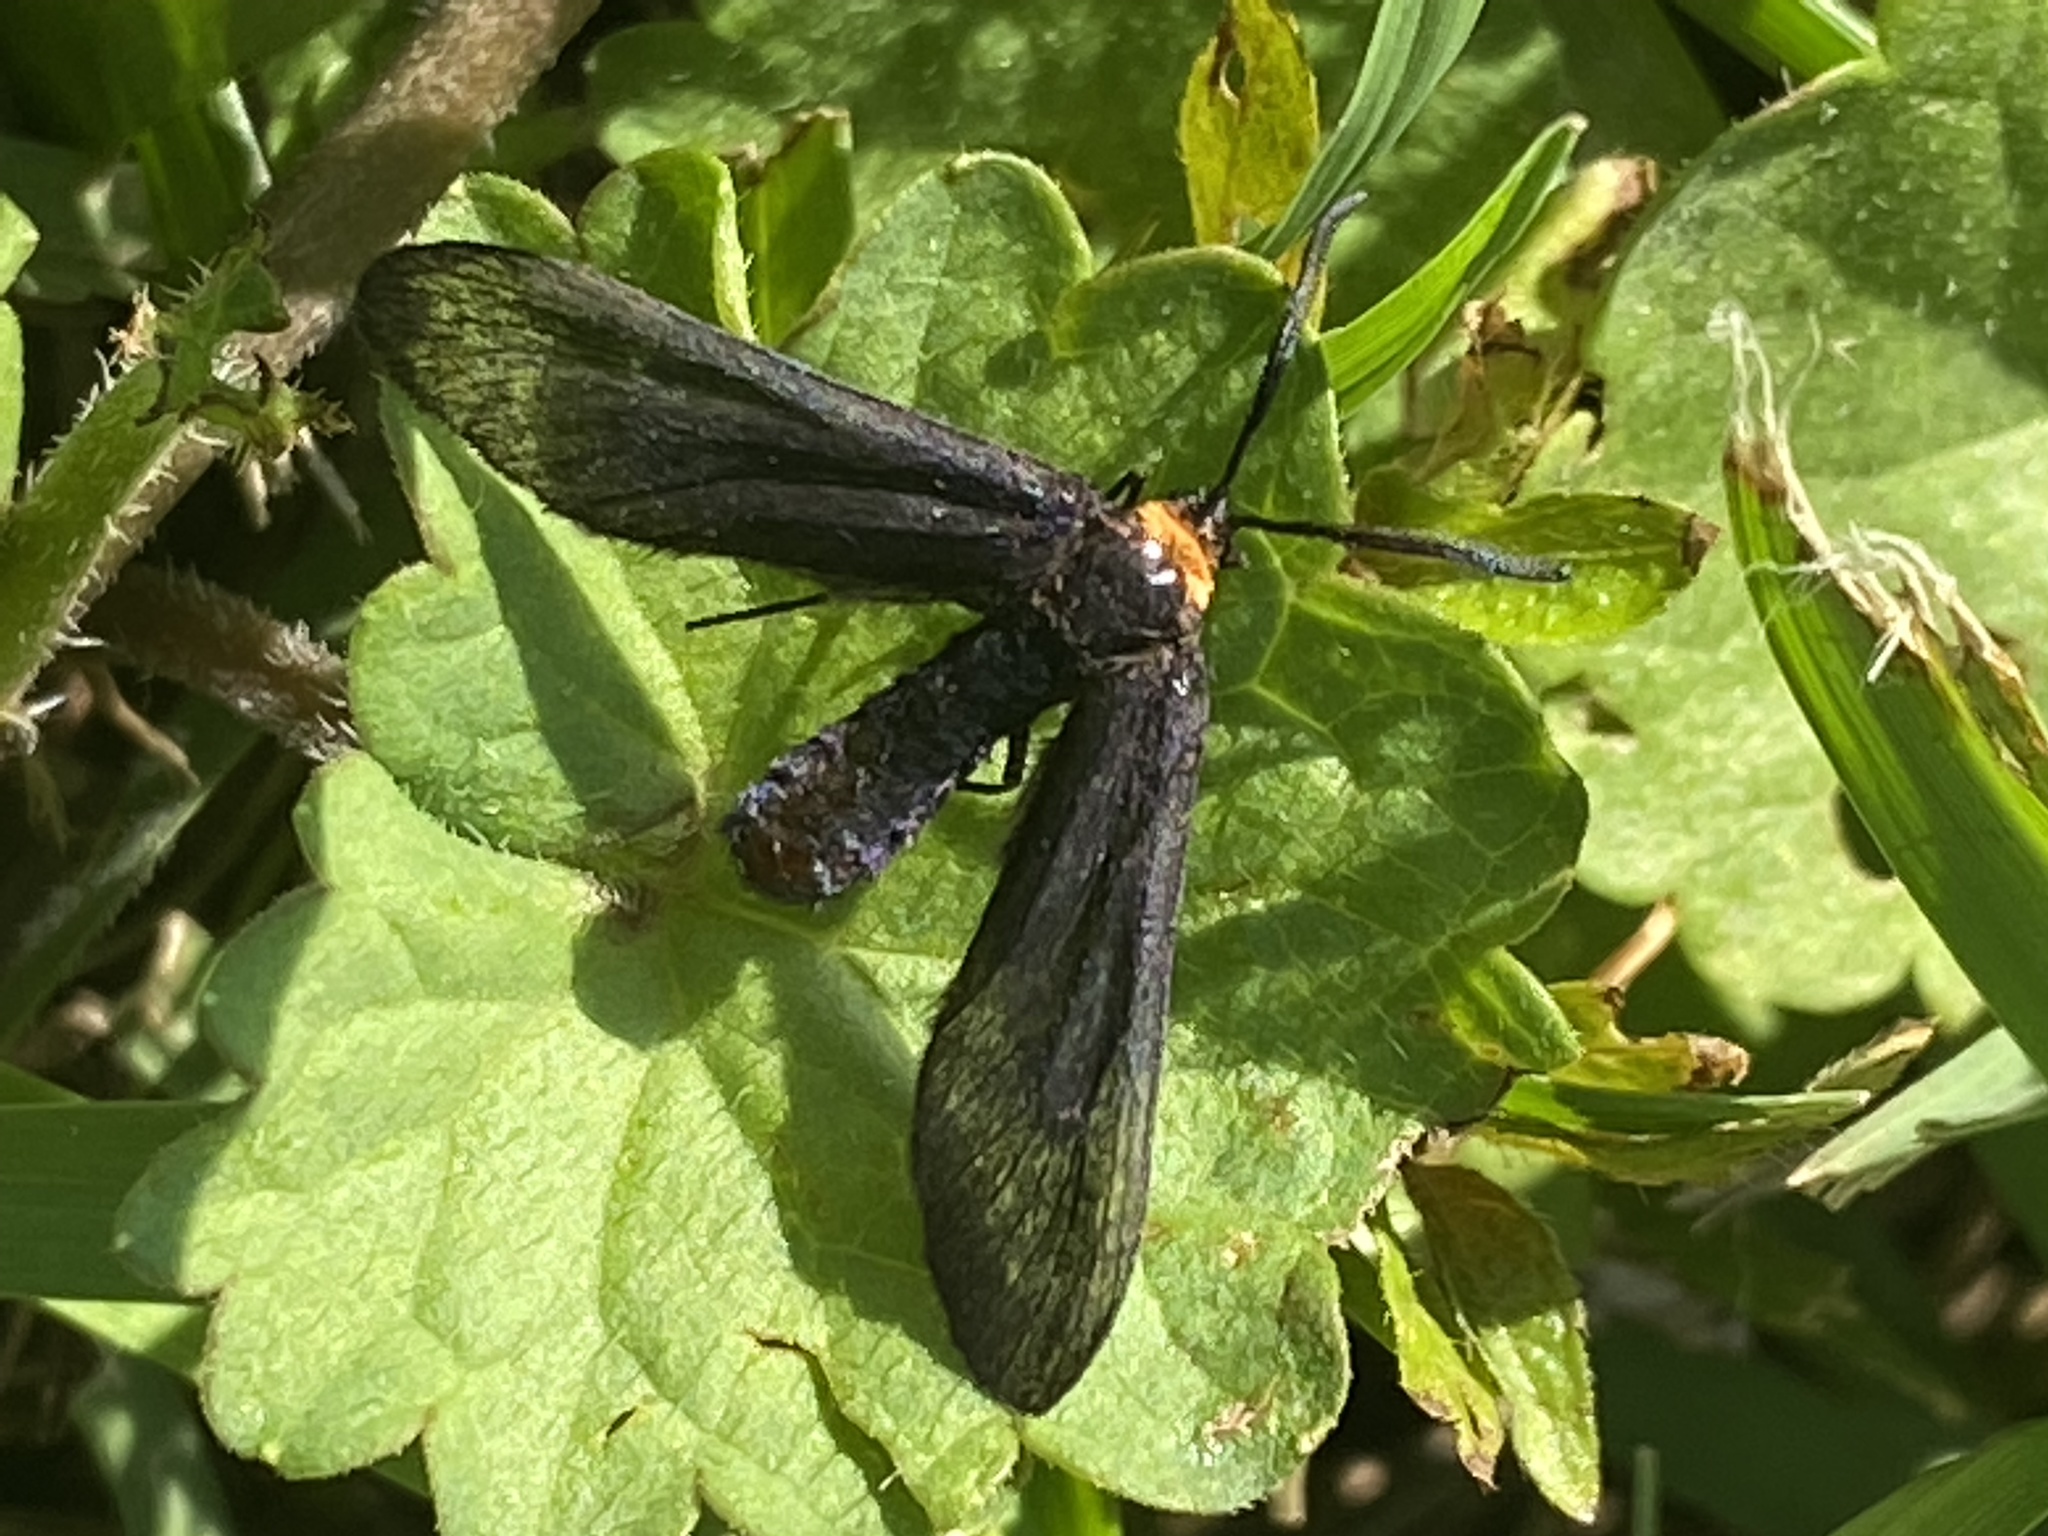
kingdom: Animalia
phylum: Arthropoda
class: Insecta
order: Lepidoptera
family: Zygaenidae
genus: Harrisina
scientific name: Harrisina americana
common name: Grapeleaf skeletonizer moth
